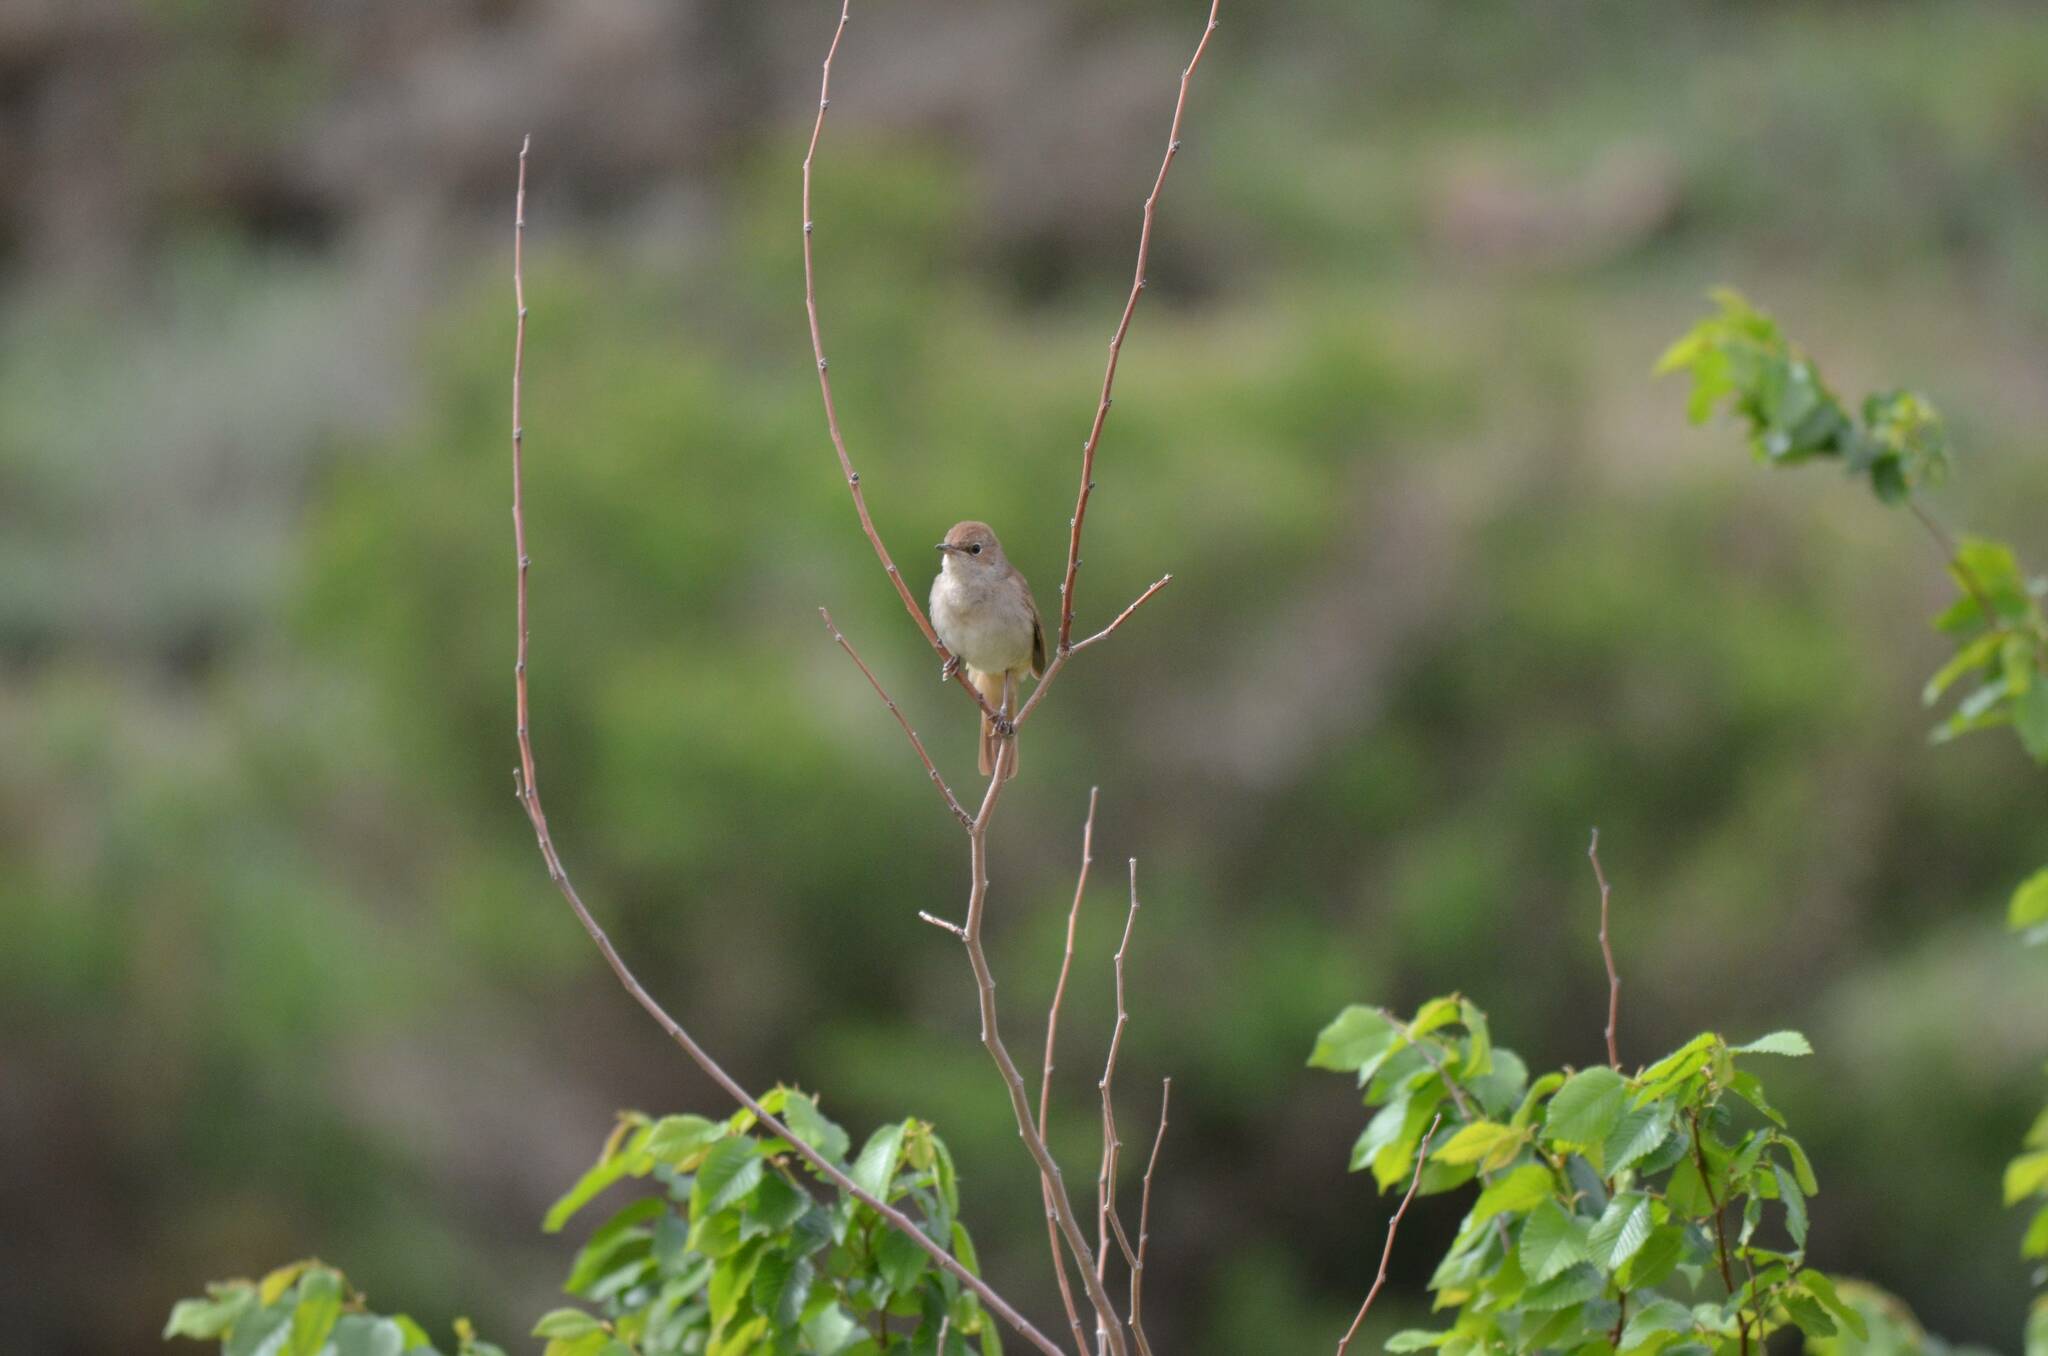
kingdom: Animalia
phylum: Chordata
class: Aves
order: Passeriformes
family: Muscicapidae
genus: Luscinia
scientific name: Luscinia megarhynchos
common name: Common nightingale
